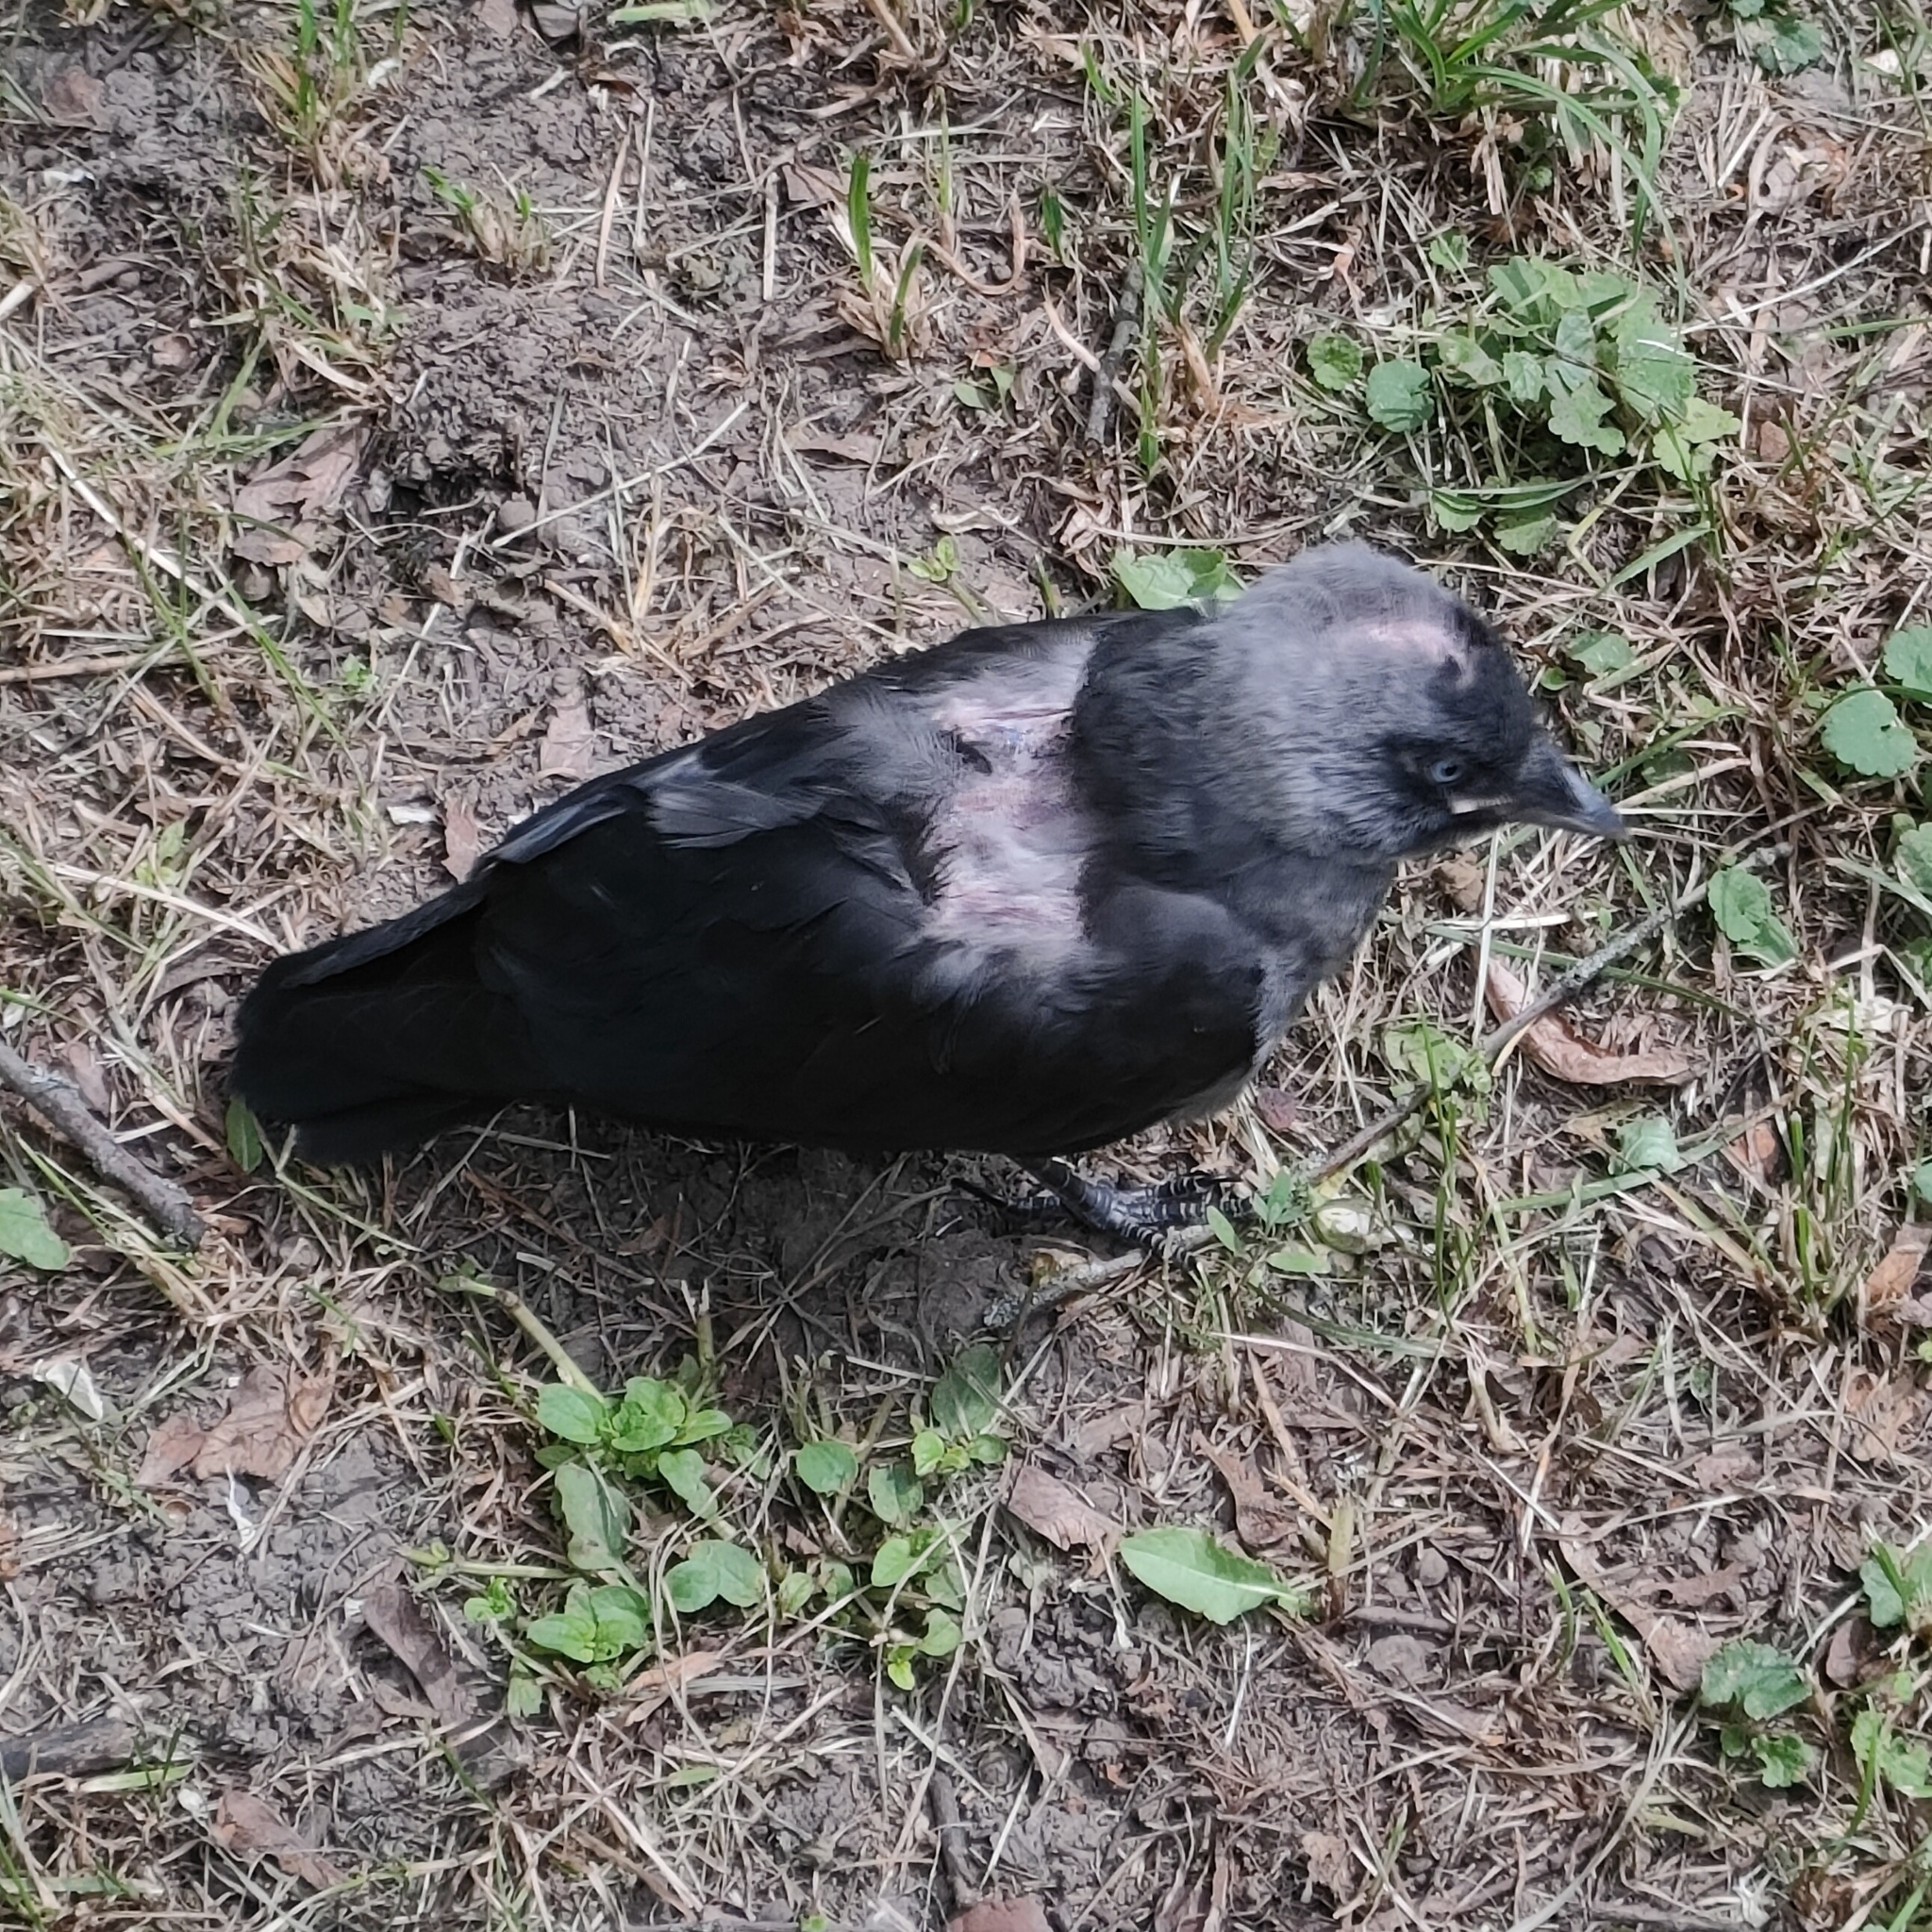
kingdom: Animalia
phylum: Chordata
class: Aves
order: Passeriformes
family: Corvidae
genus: Coloeus
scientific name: Coloeus monedula
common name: Western jackdaw
